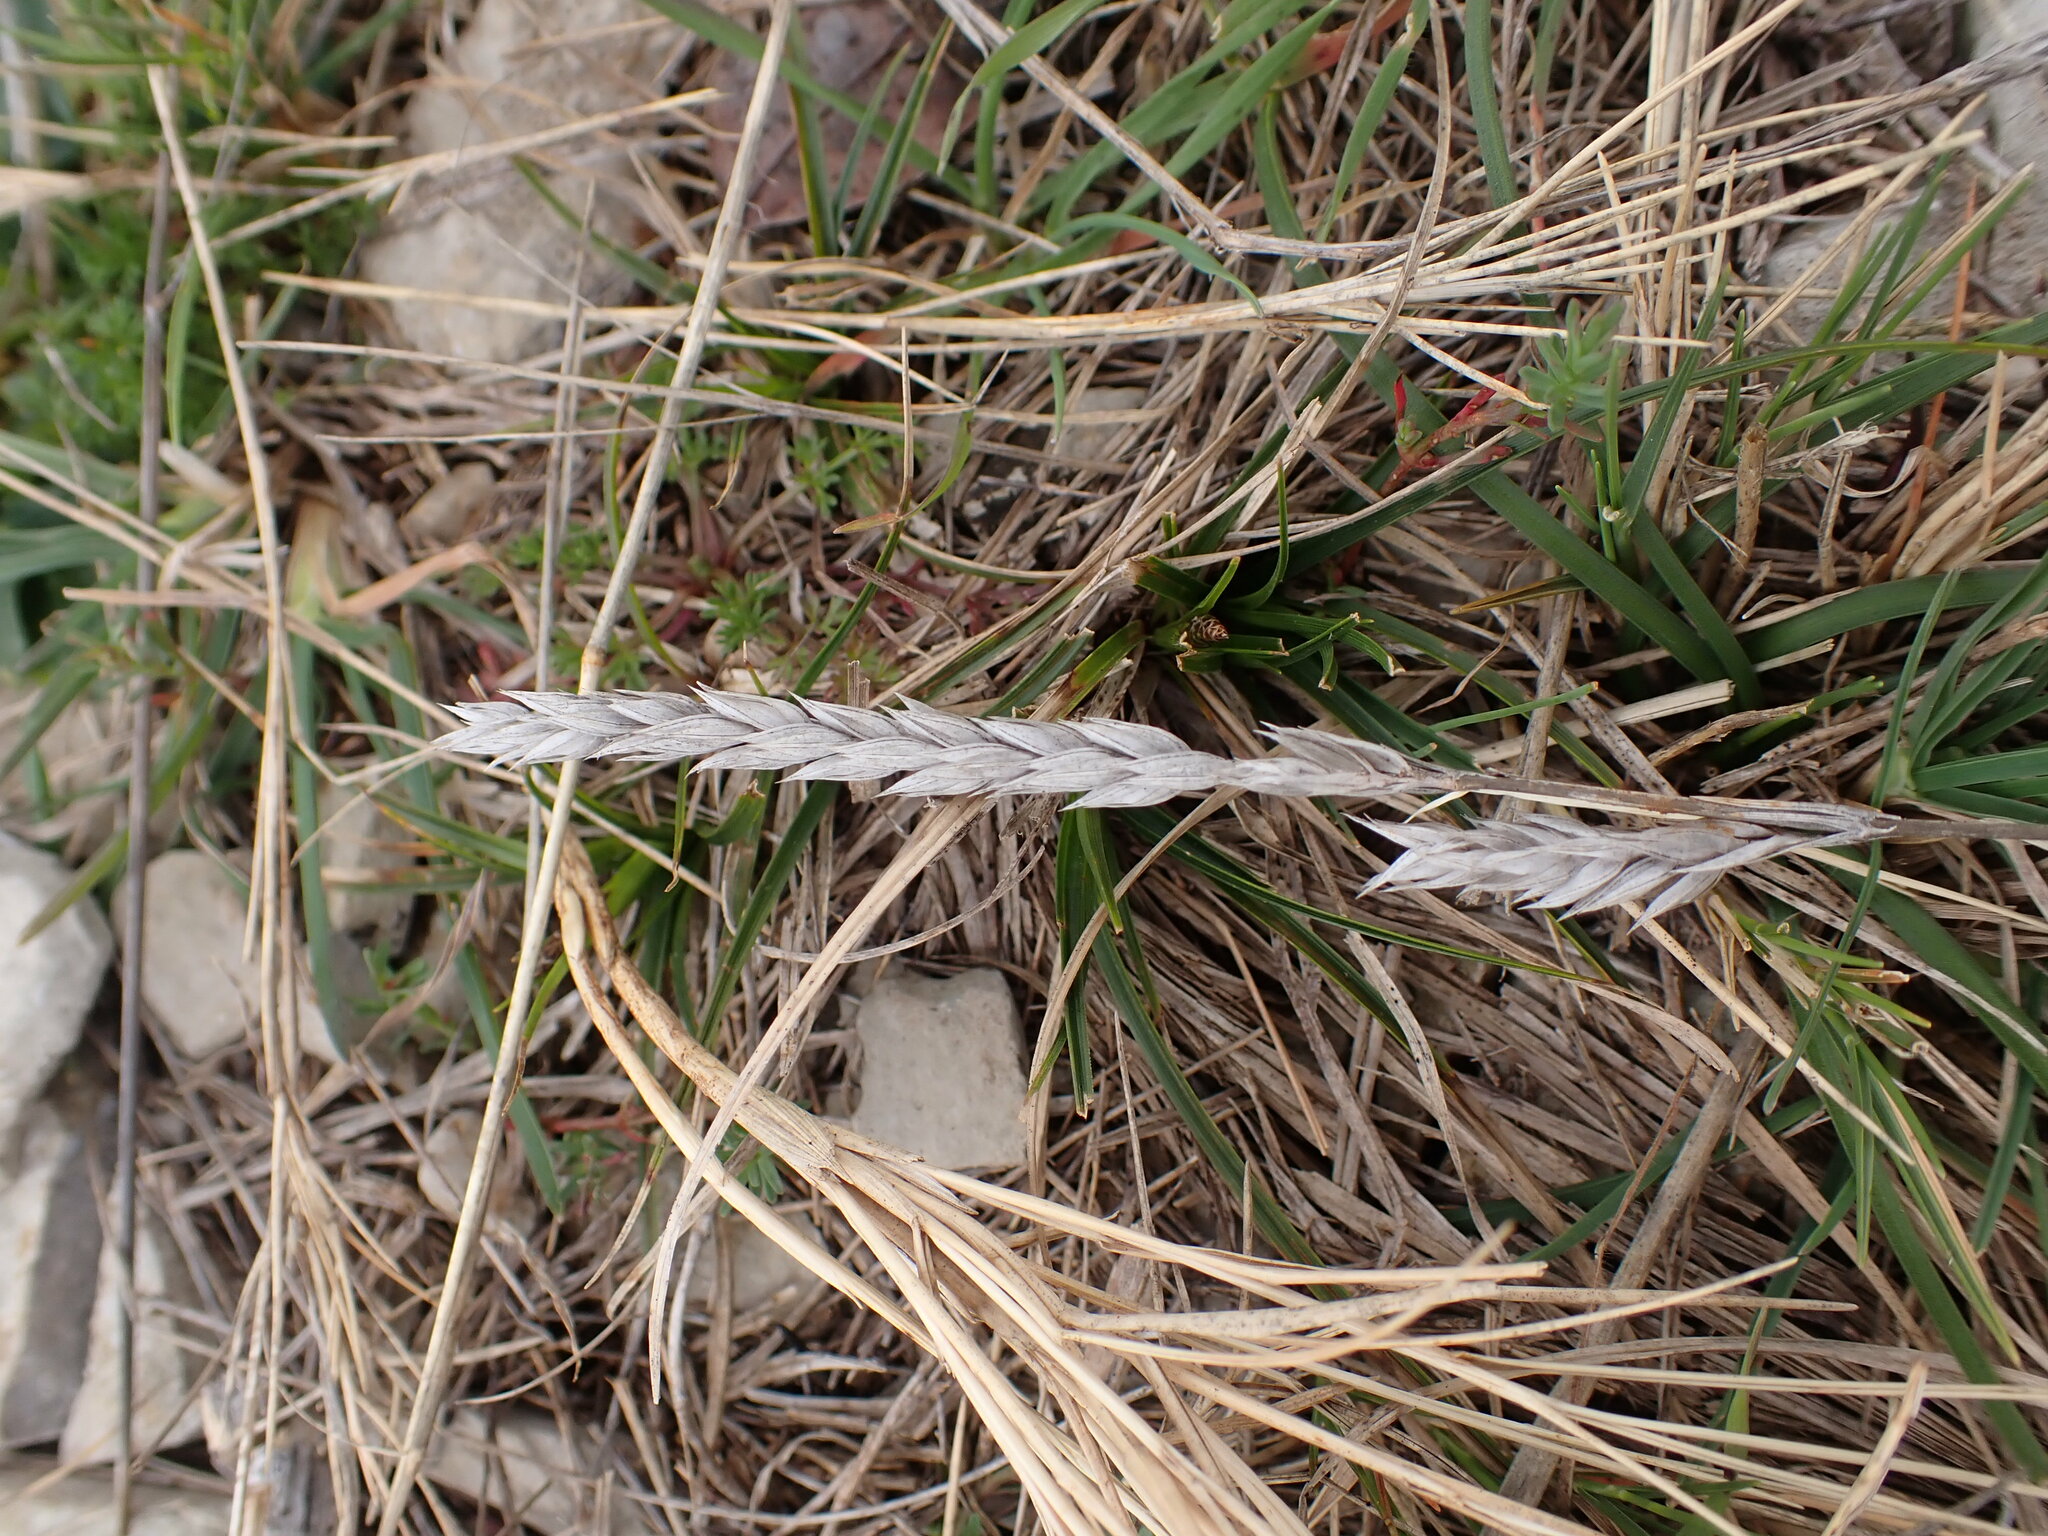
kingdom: Plantae
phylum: Tracheophyta
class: Magnoliopsida
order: Gentianales
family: Rubiaceae
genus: Crucianella
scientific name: Crucianella angustifolia
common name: Narrowleaf crucianella
